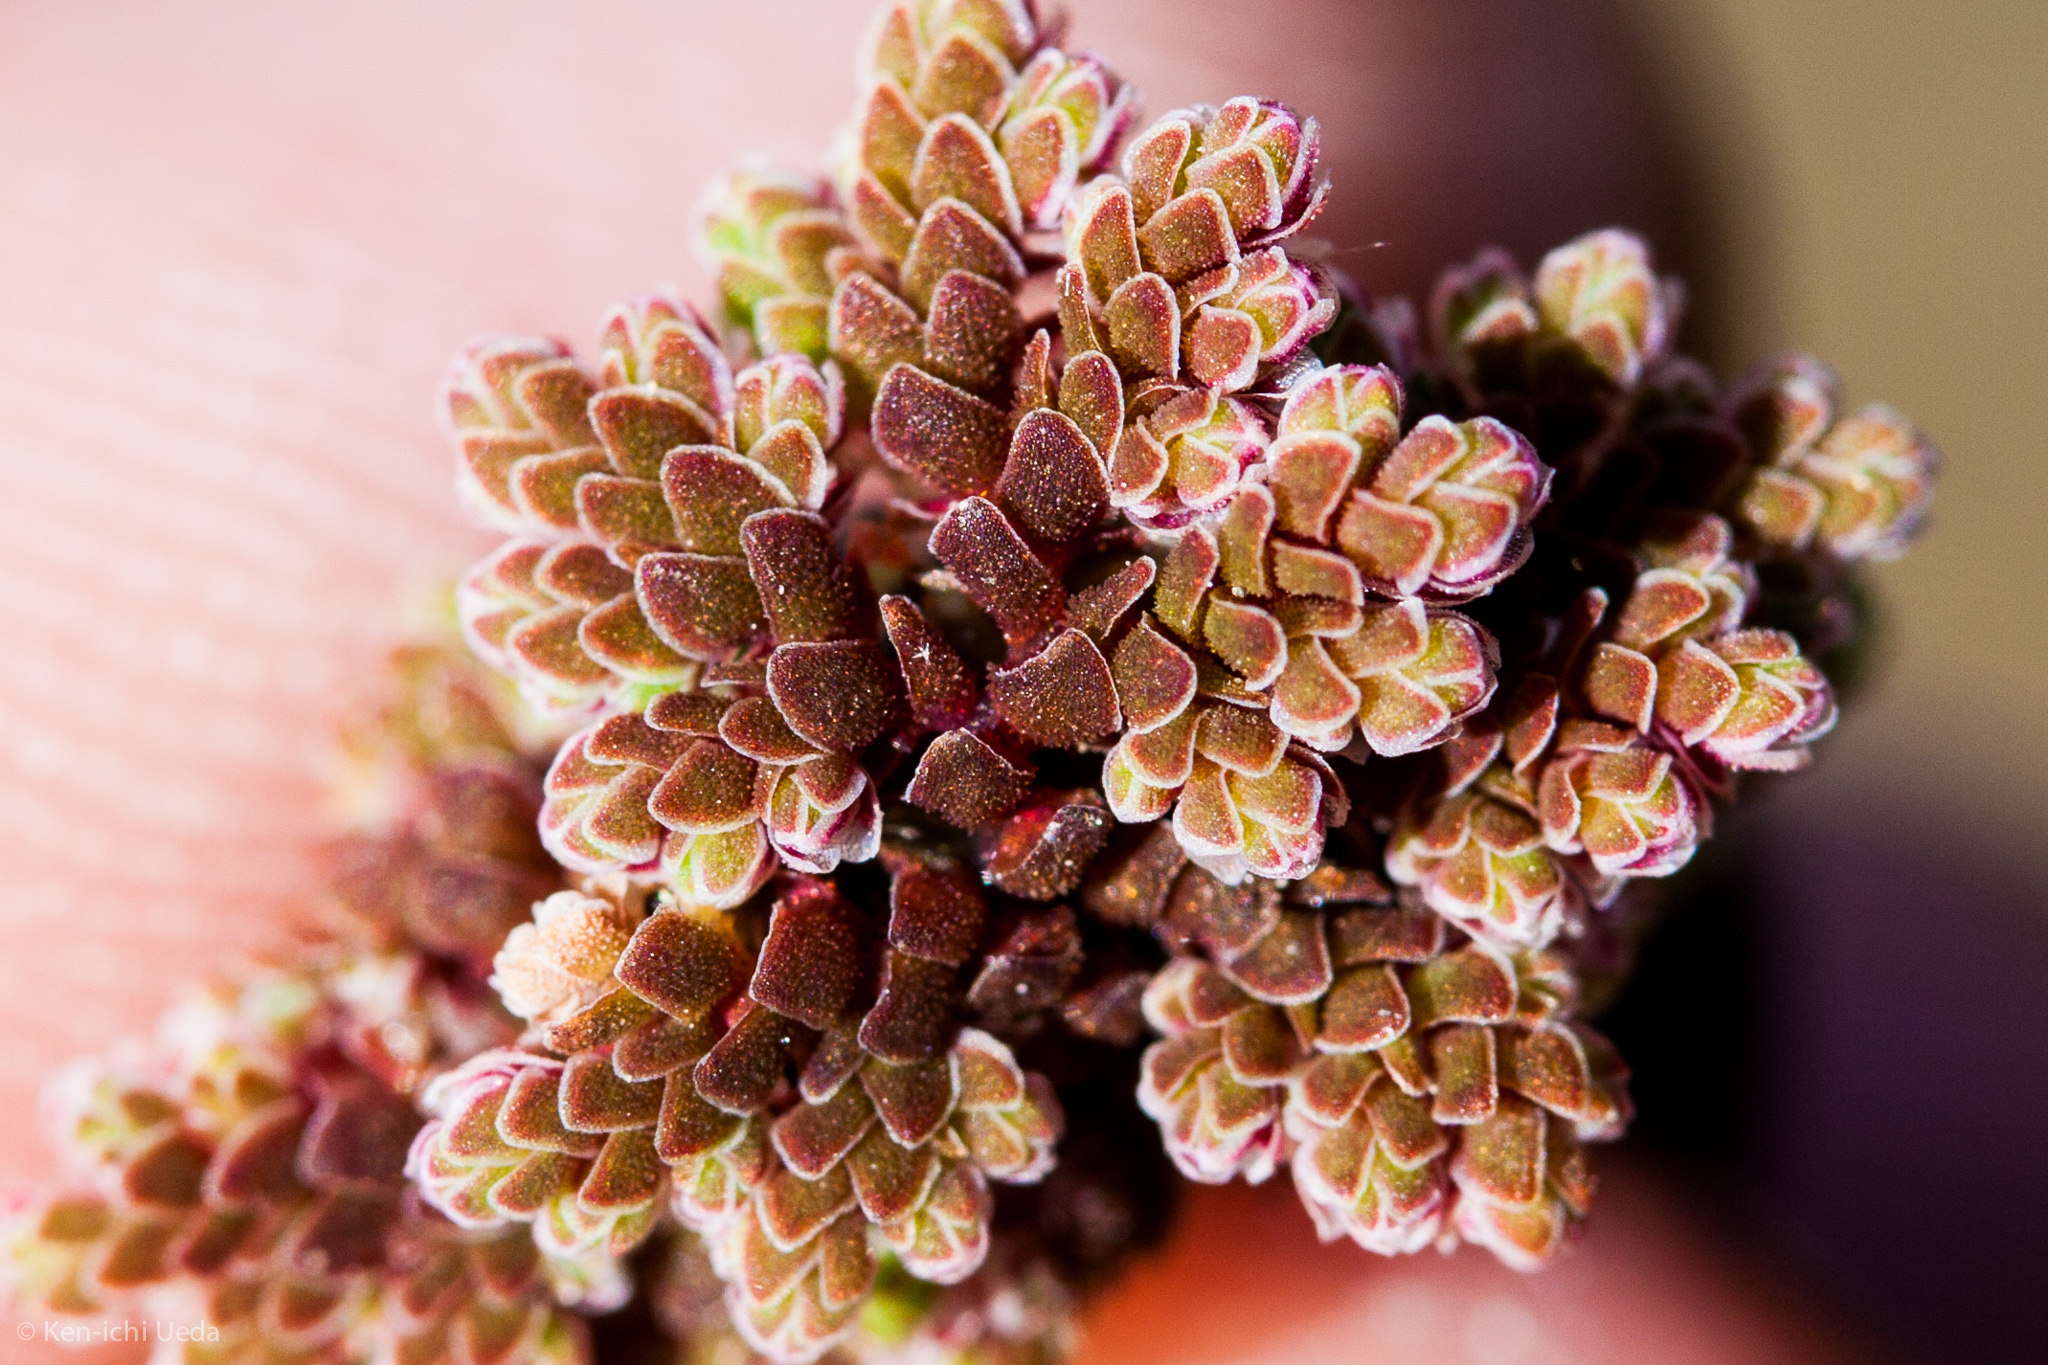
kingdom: Plantae
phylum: Tracheophyta
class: Polypodiopsida
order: Salviniales
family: Salviniaceae
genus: Azolla
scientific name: Azolla filiculoides
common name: Water fern
